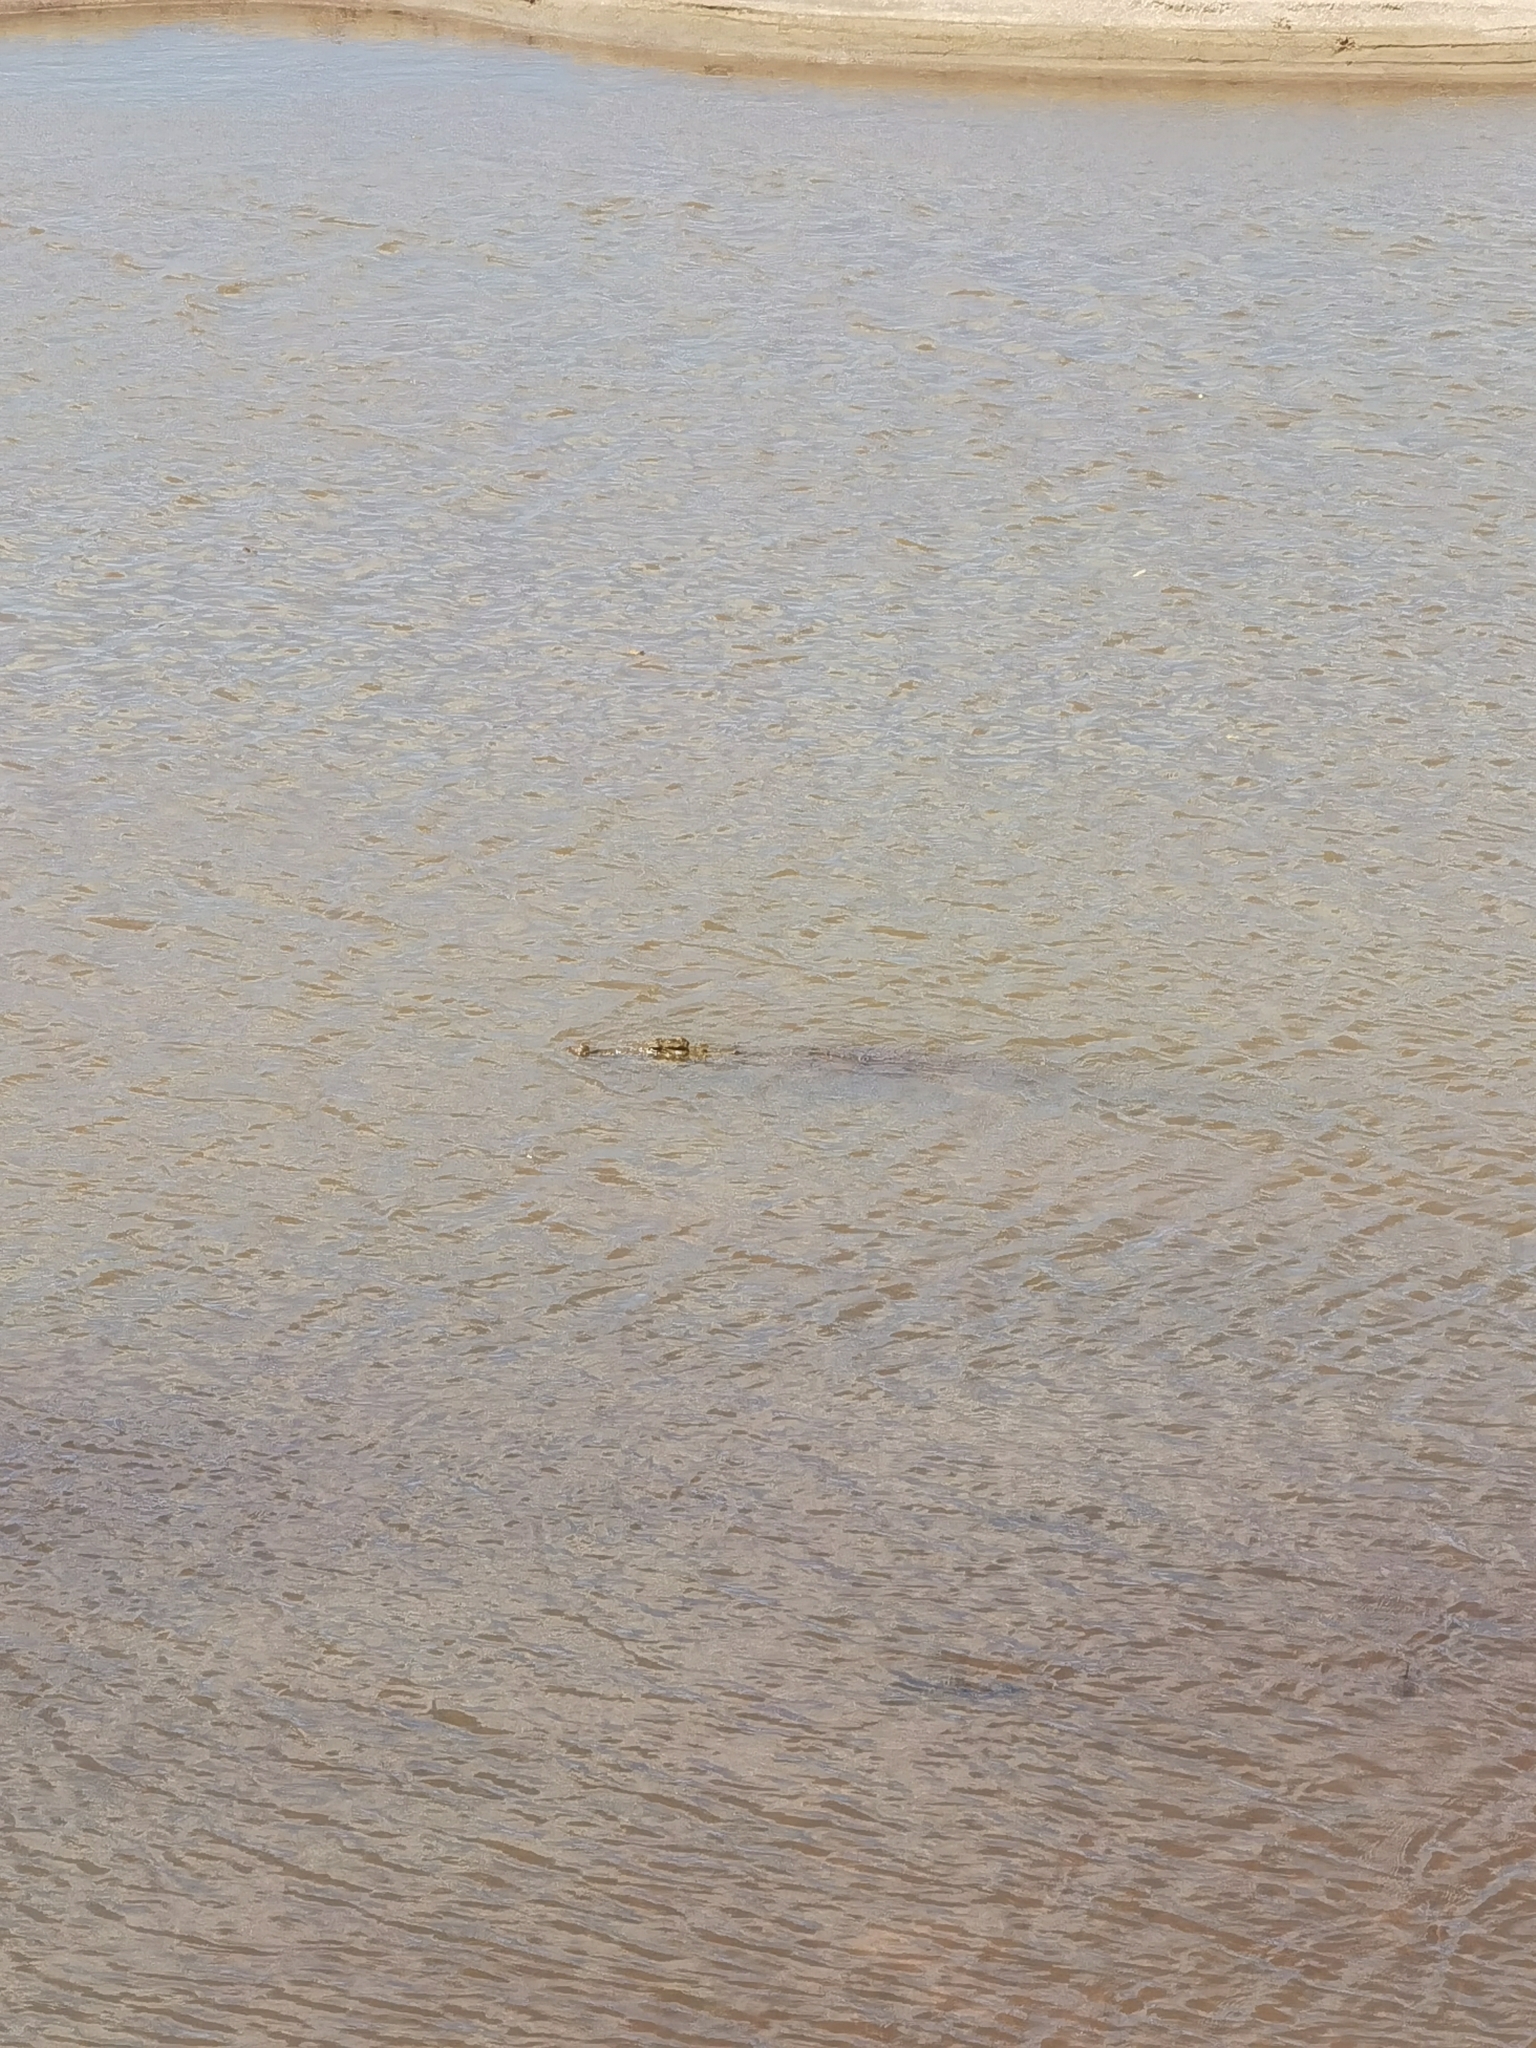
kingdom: Animalia
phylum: Chordata
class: Crocodylia
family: Crocodylidae
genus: Crocodylus
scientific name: Crocodylus niloticus
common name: Nile crocodile
